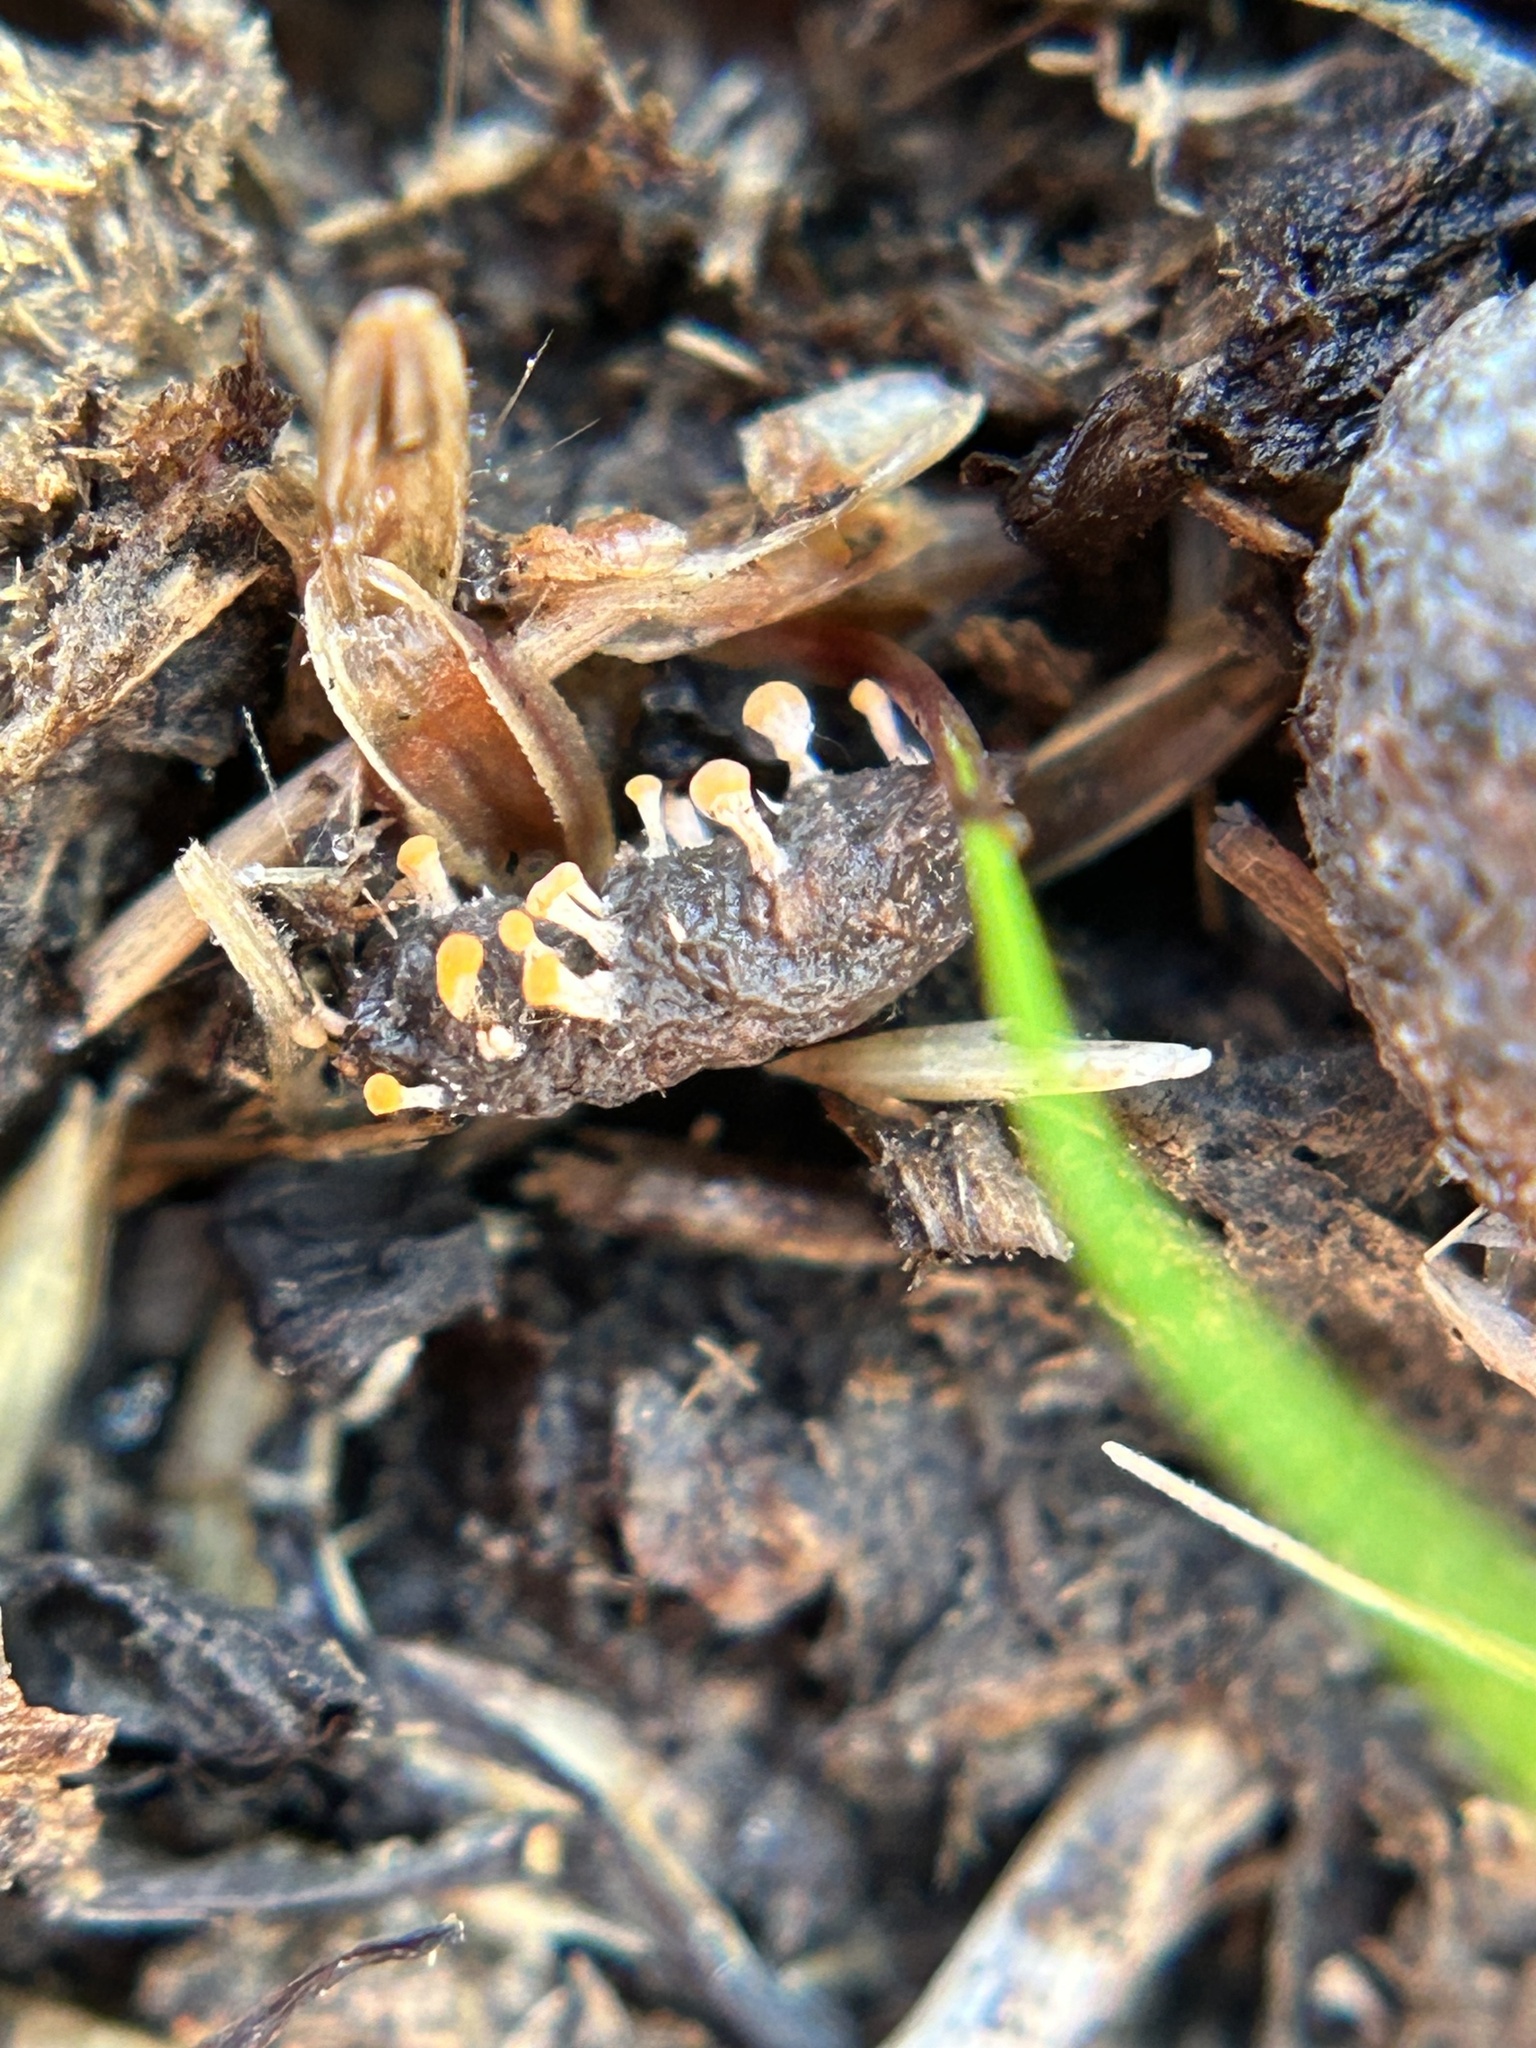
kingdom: Fungi
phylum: Ascomycota
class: Sordariomycetes
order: Hypocreales
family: Myrotheciomycetaceae
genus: Emericellopsis
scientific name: Emericellopsis
